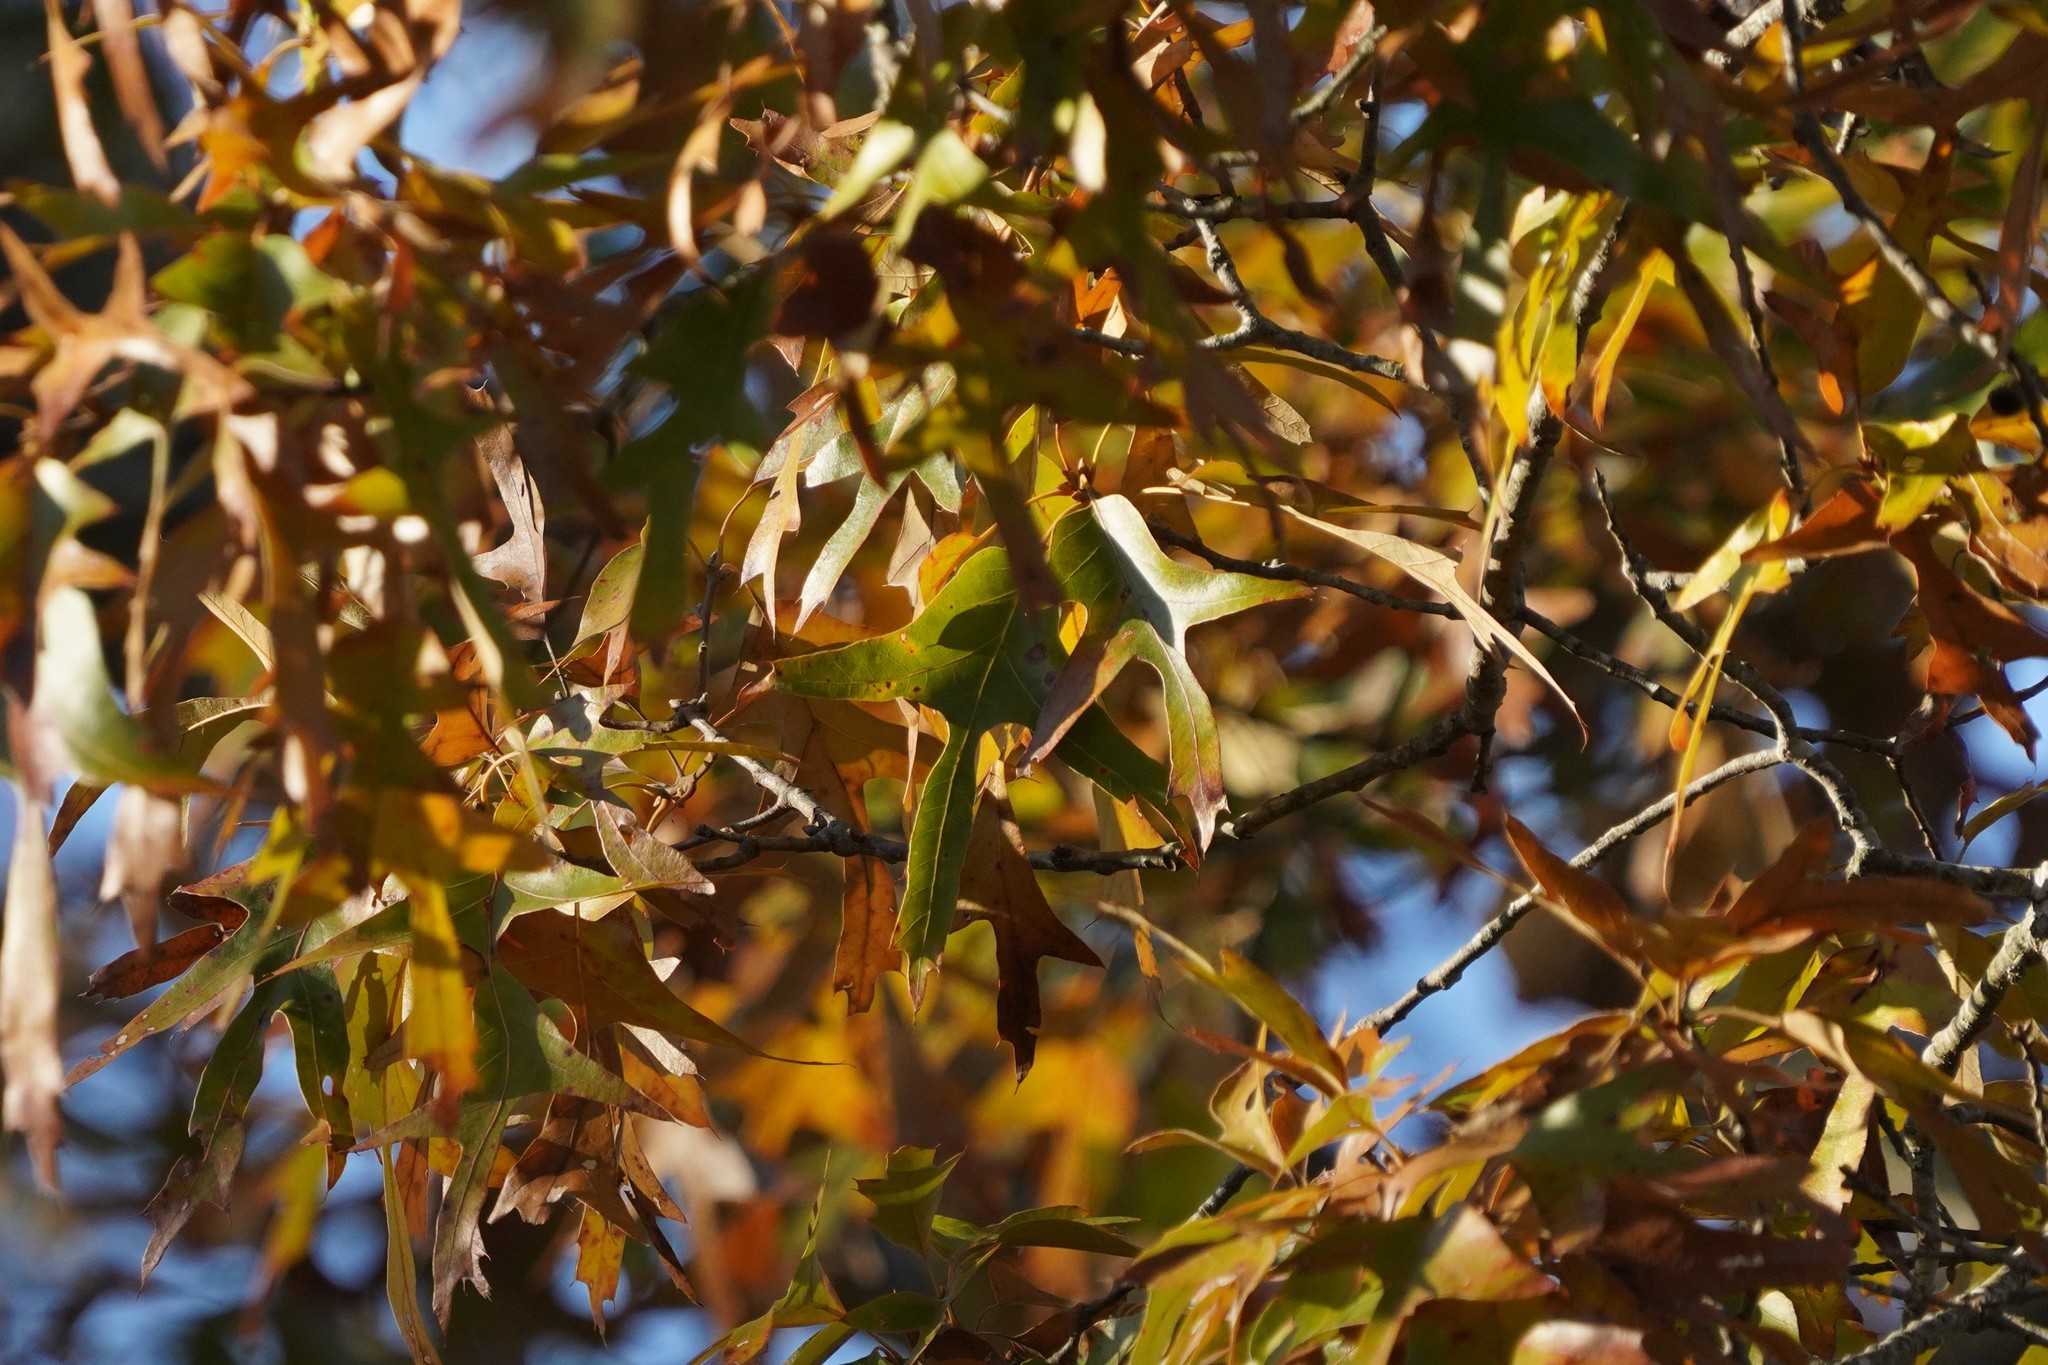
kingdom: Plantae
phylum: Tracheophyta
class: Magnoliopsida
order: Fagales
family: Fagaceae
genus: Quercus
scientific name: Quercus falcata
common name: Southern red oak
